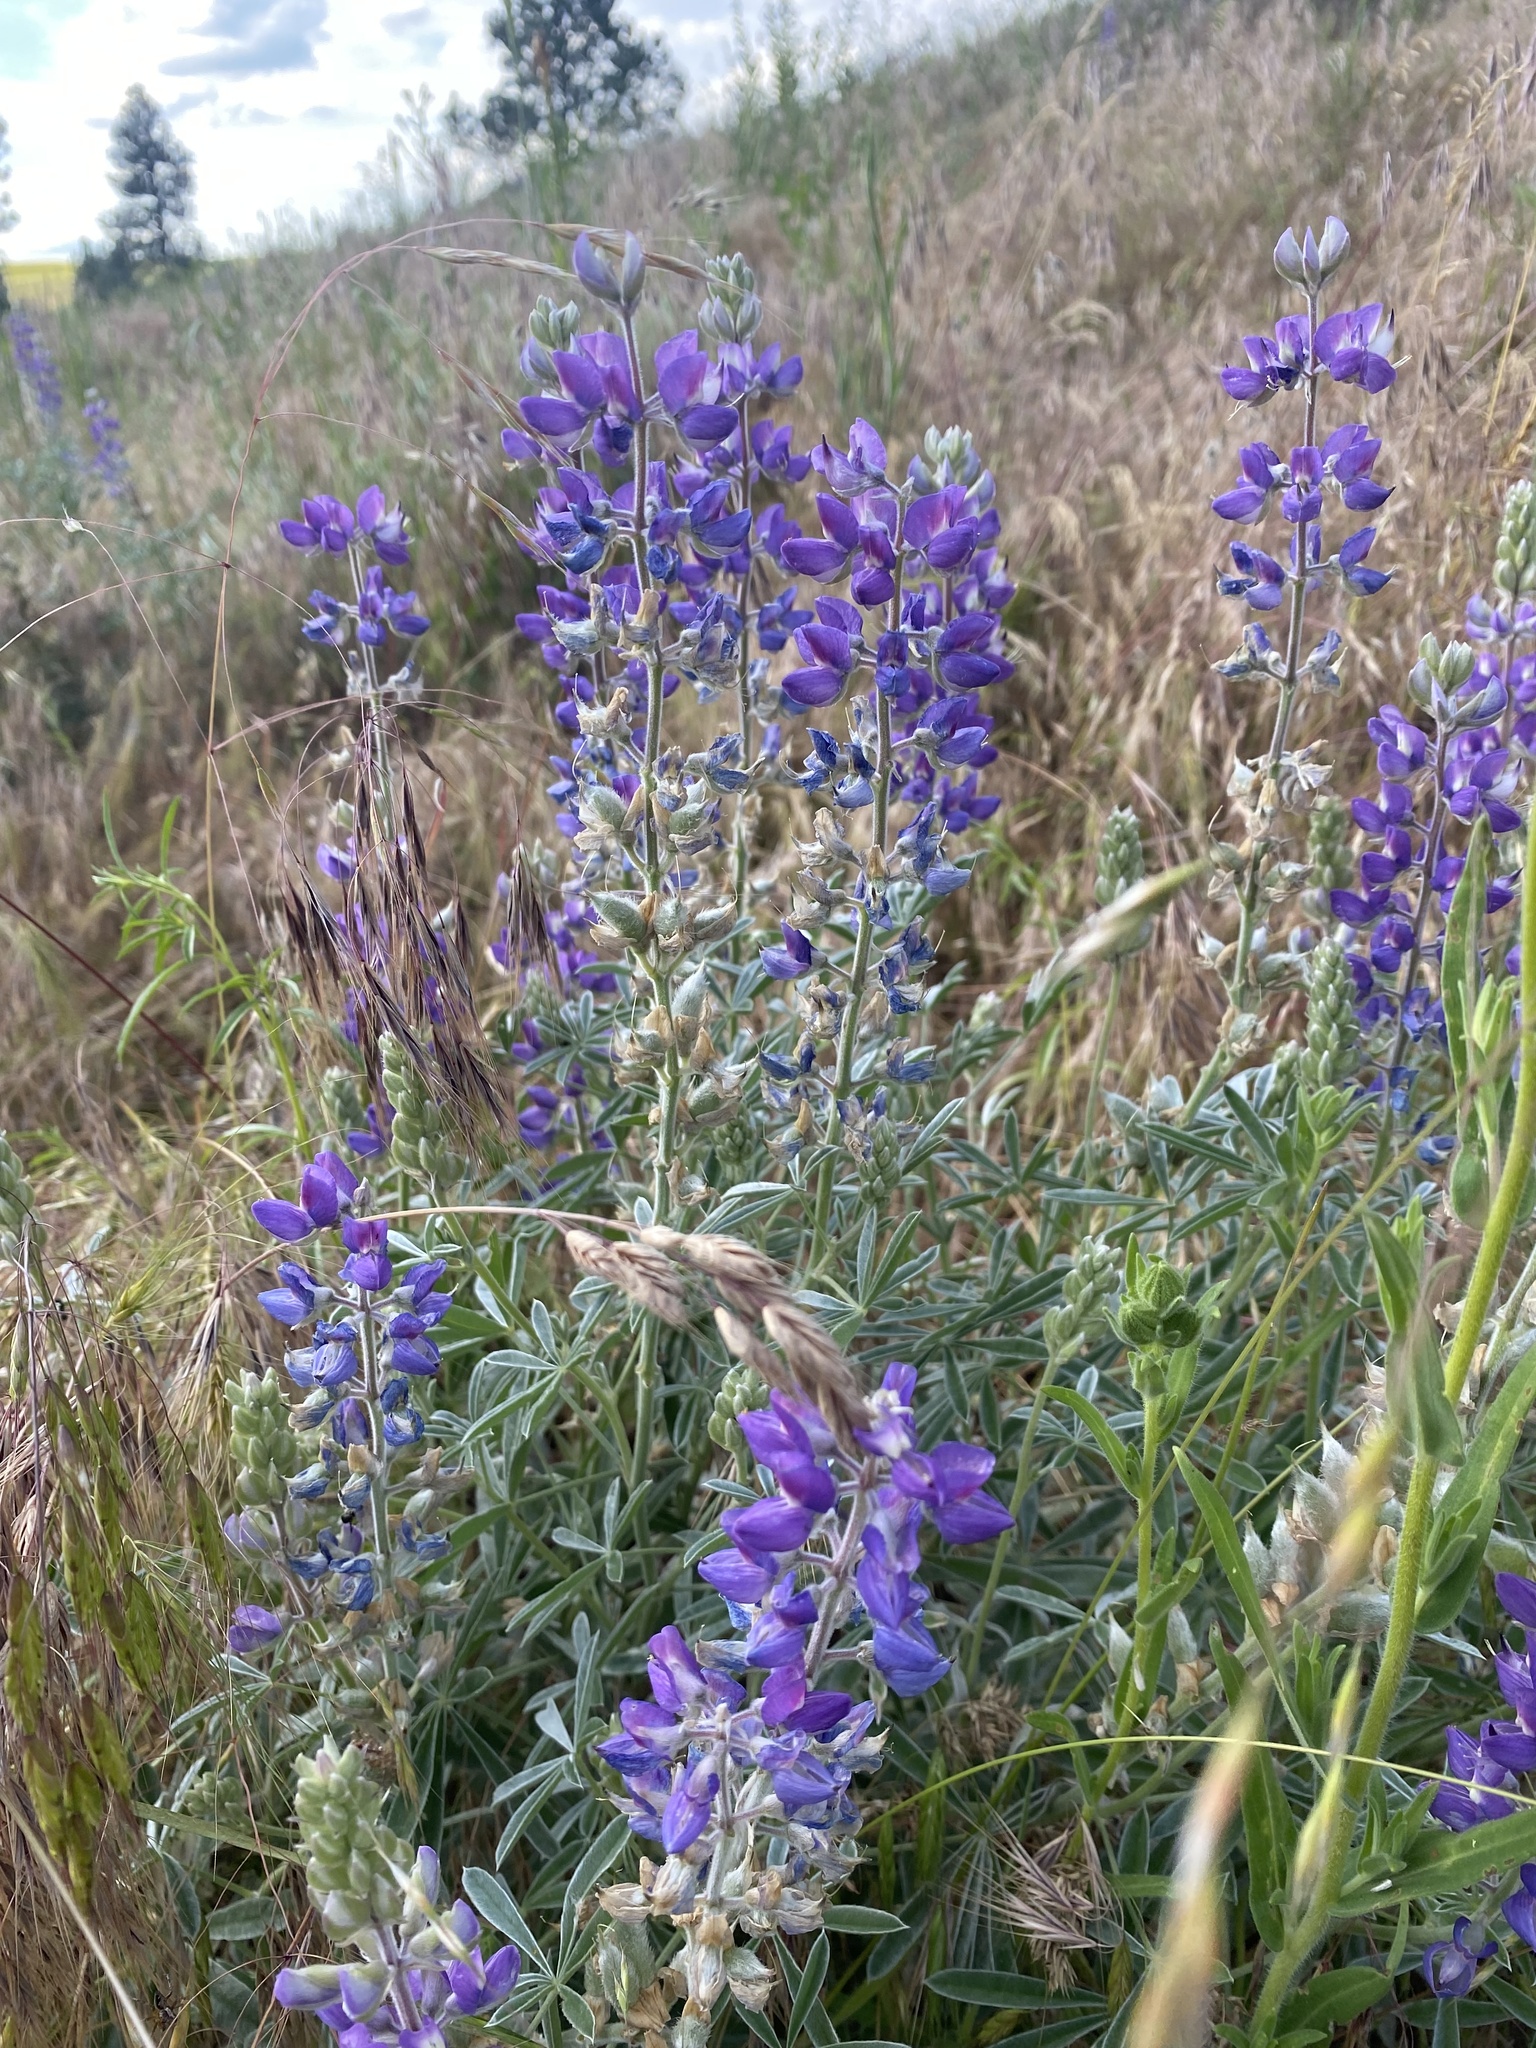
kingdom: Plantae
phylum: Tracheophyta
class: Magnoliopsida
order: Fabales
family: Fabaceae
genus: Lupinus
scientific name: Lupinus sericeus
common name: Silky lupine
